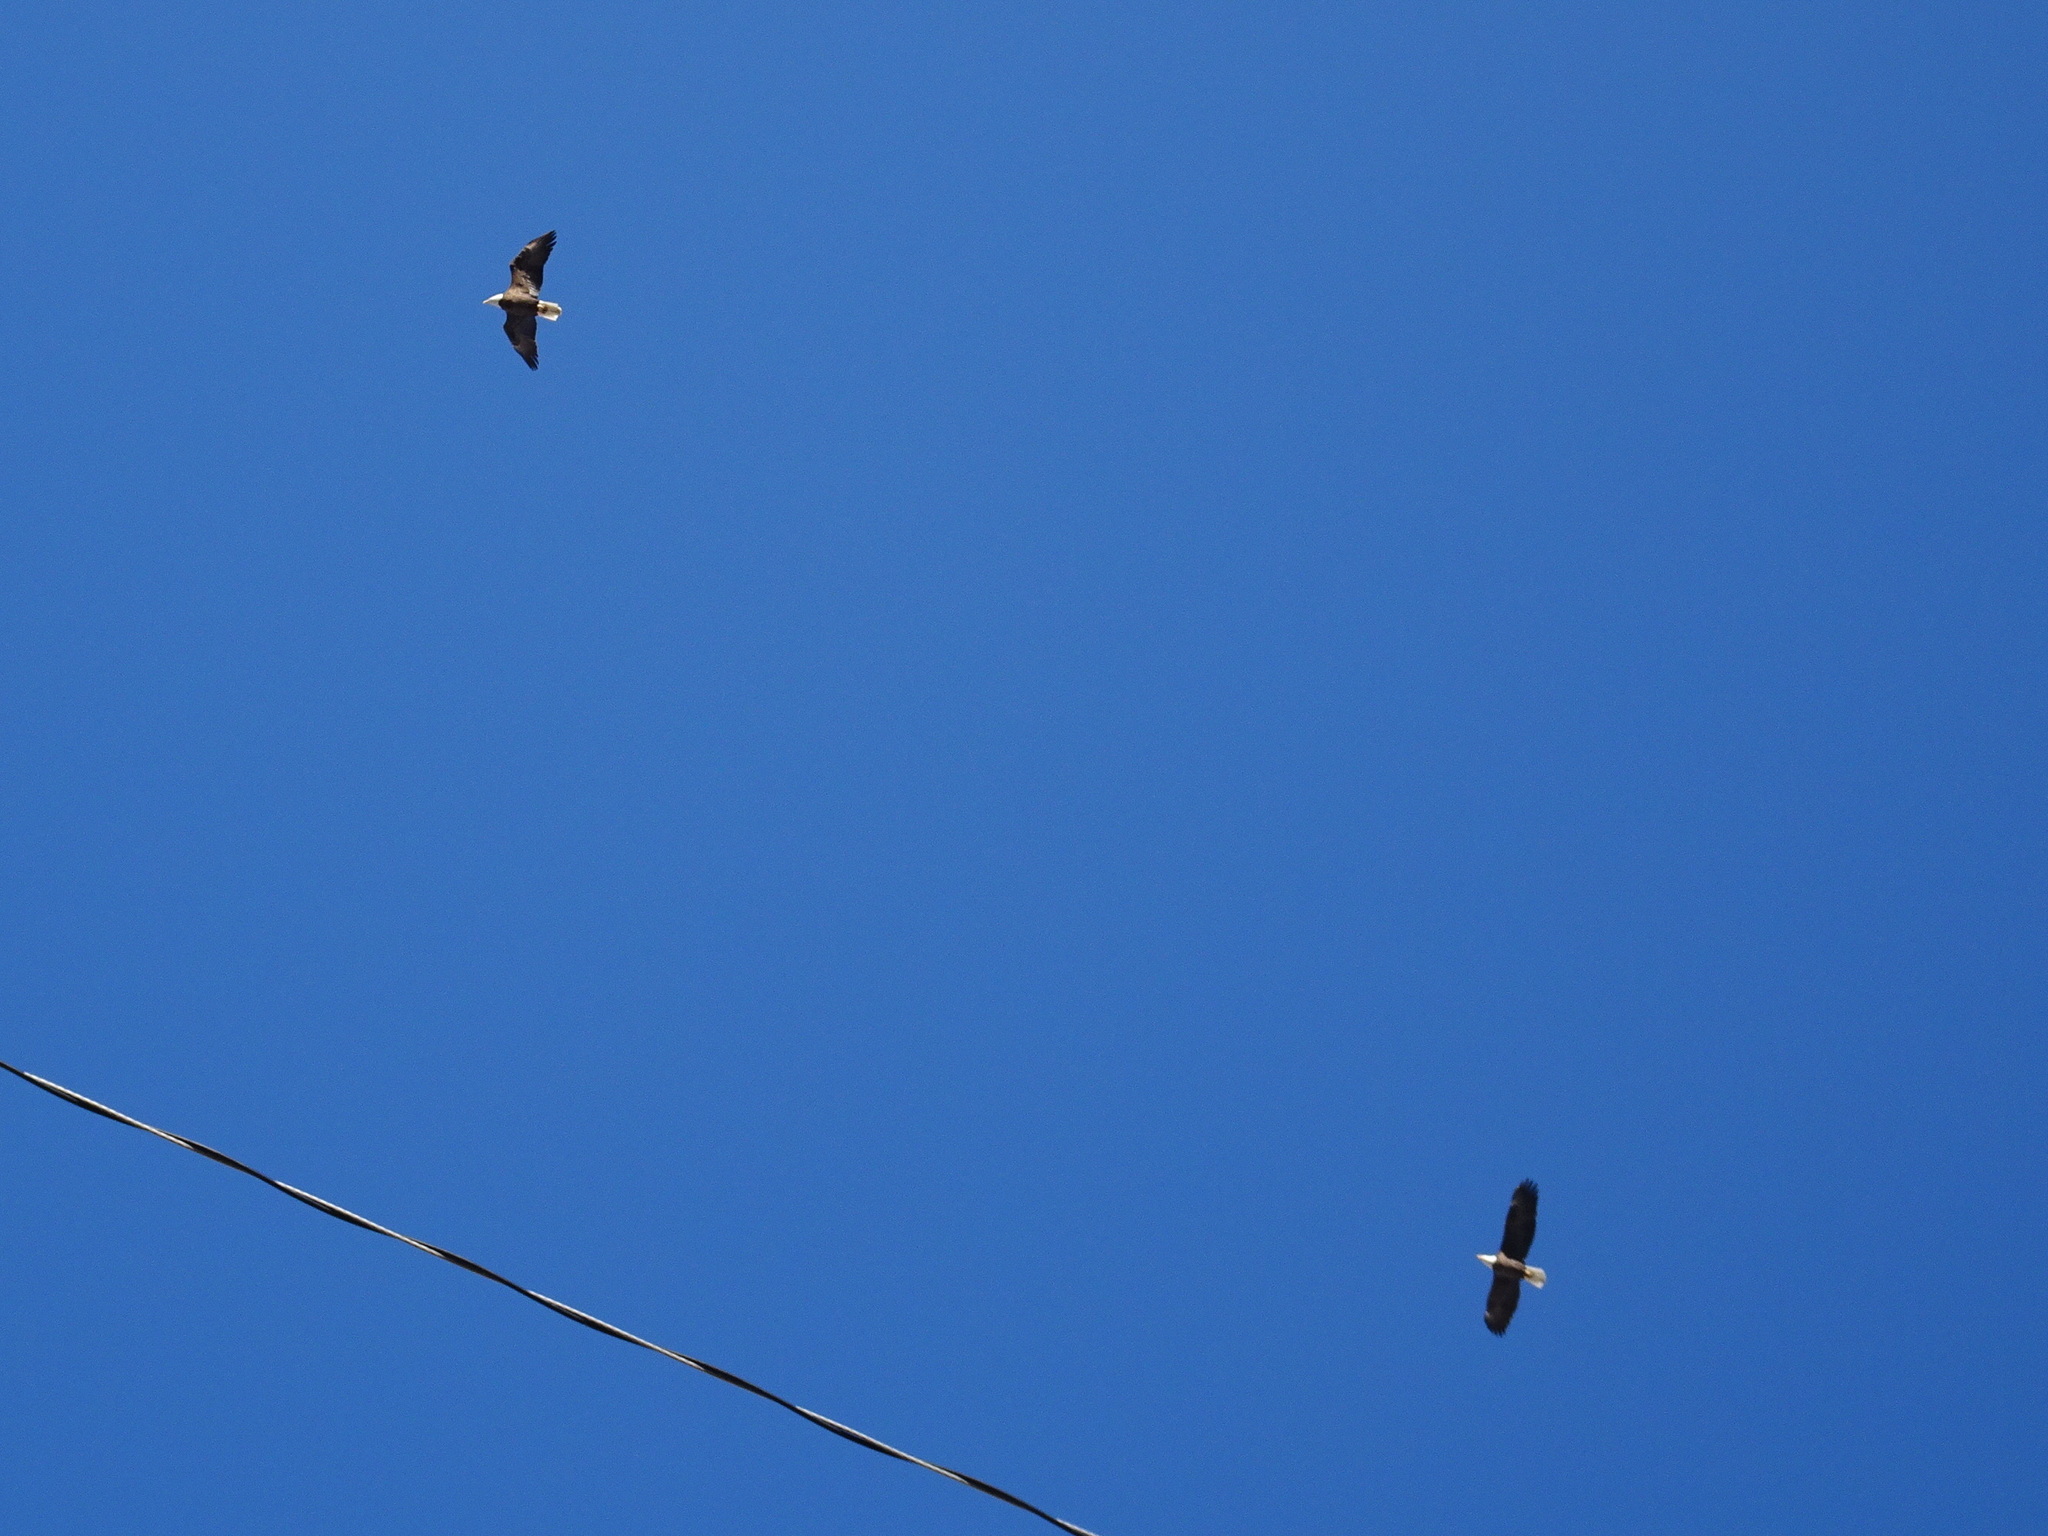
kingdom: Animalia
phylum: Chordata
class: Aves
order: Accipitriformes
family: Accipitridae
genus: Haliaeetus
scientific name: Haliaeetus leucocephalus
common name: Bald eagle
